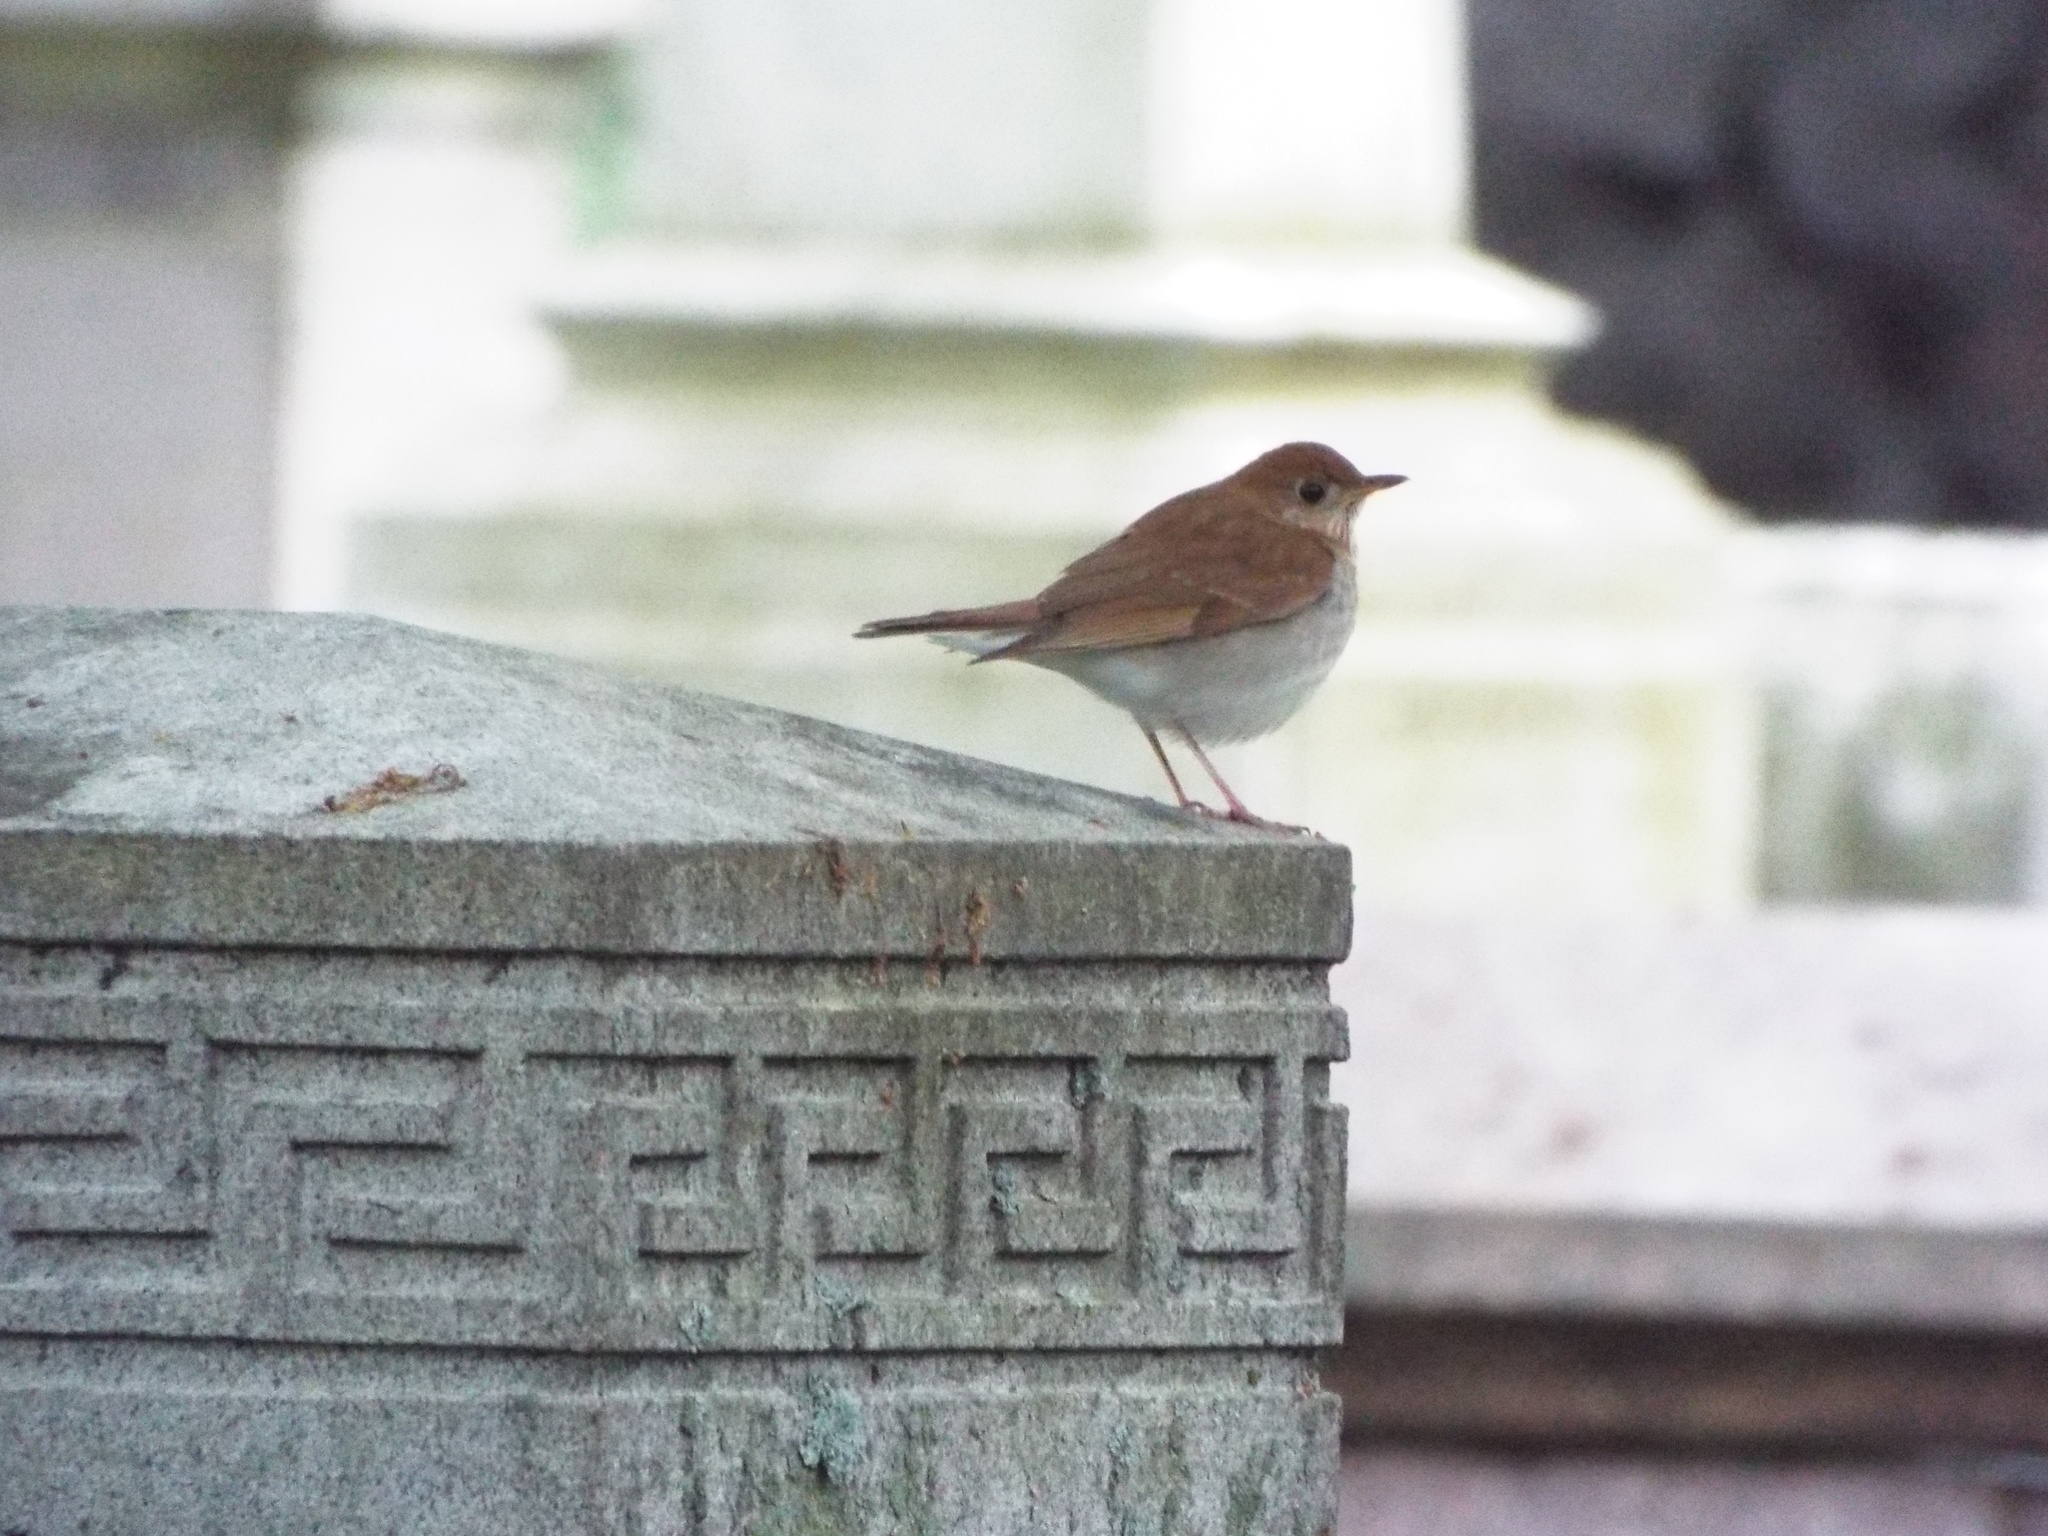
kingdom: Animalia
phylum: Chordata
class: Aves
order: Passeriformes
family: Turdidae
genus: Catharus
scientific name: Catharus fuscescens
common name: Veery
